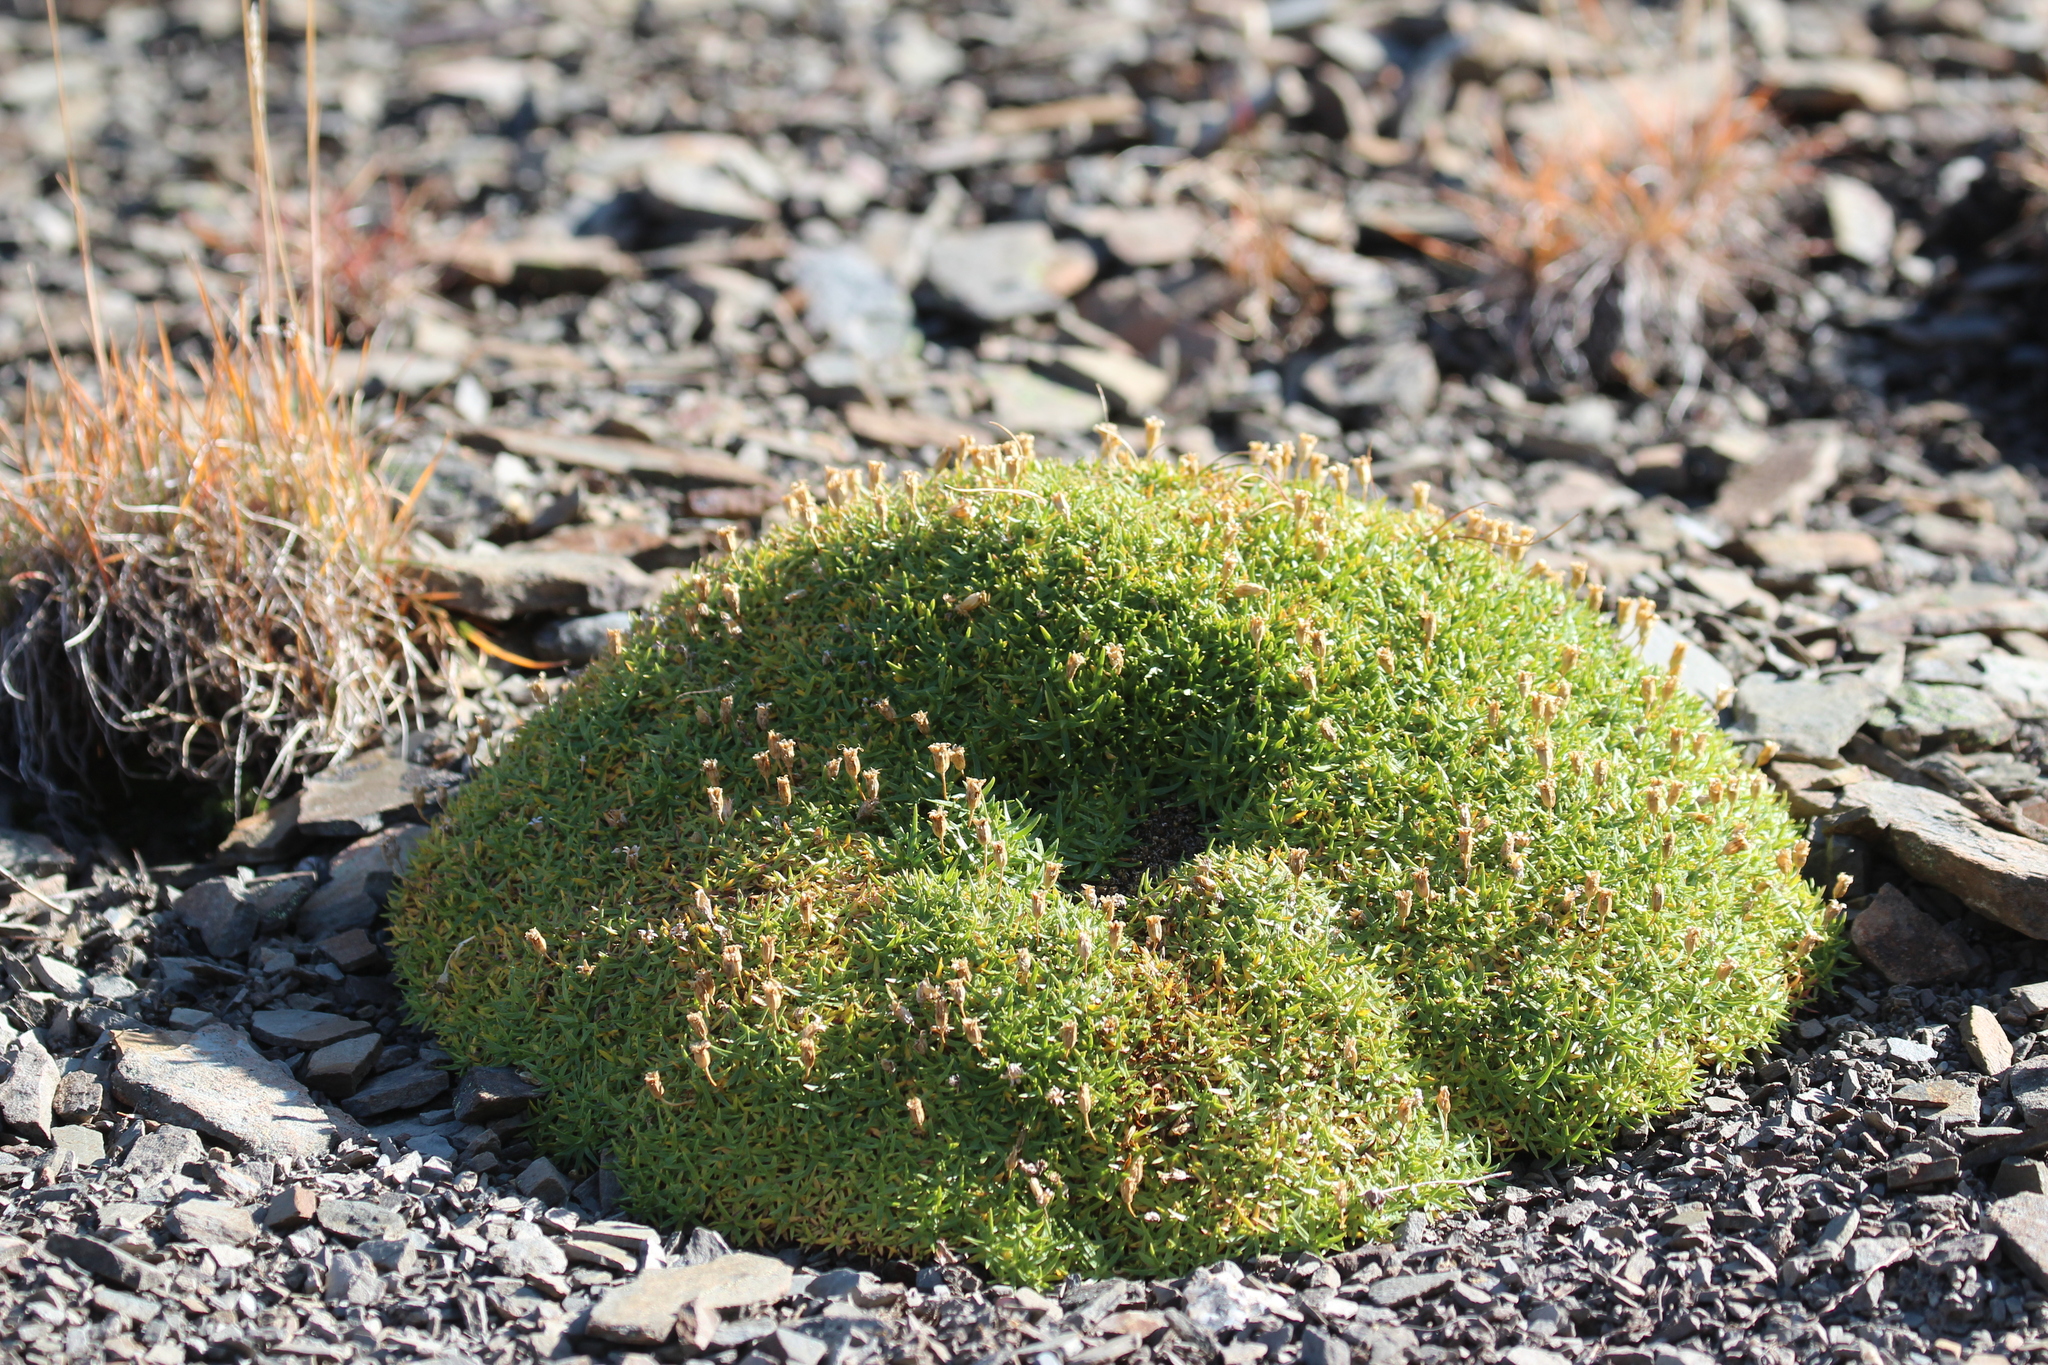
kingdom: Plantae
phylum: Tracheophyta
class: Magnoliopsida
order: Caryophyllales
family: Caryophyllaceae
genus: Silene
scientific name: Silene acaulis
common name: Moss campion
